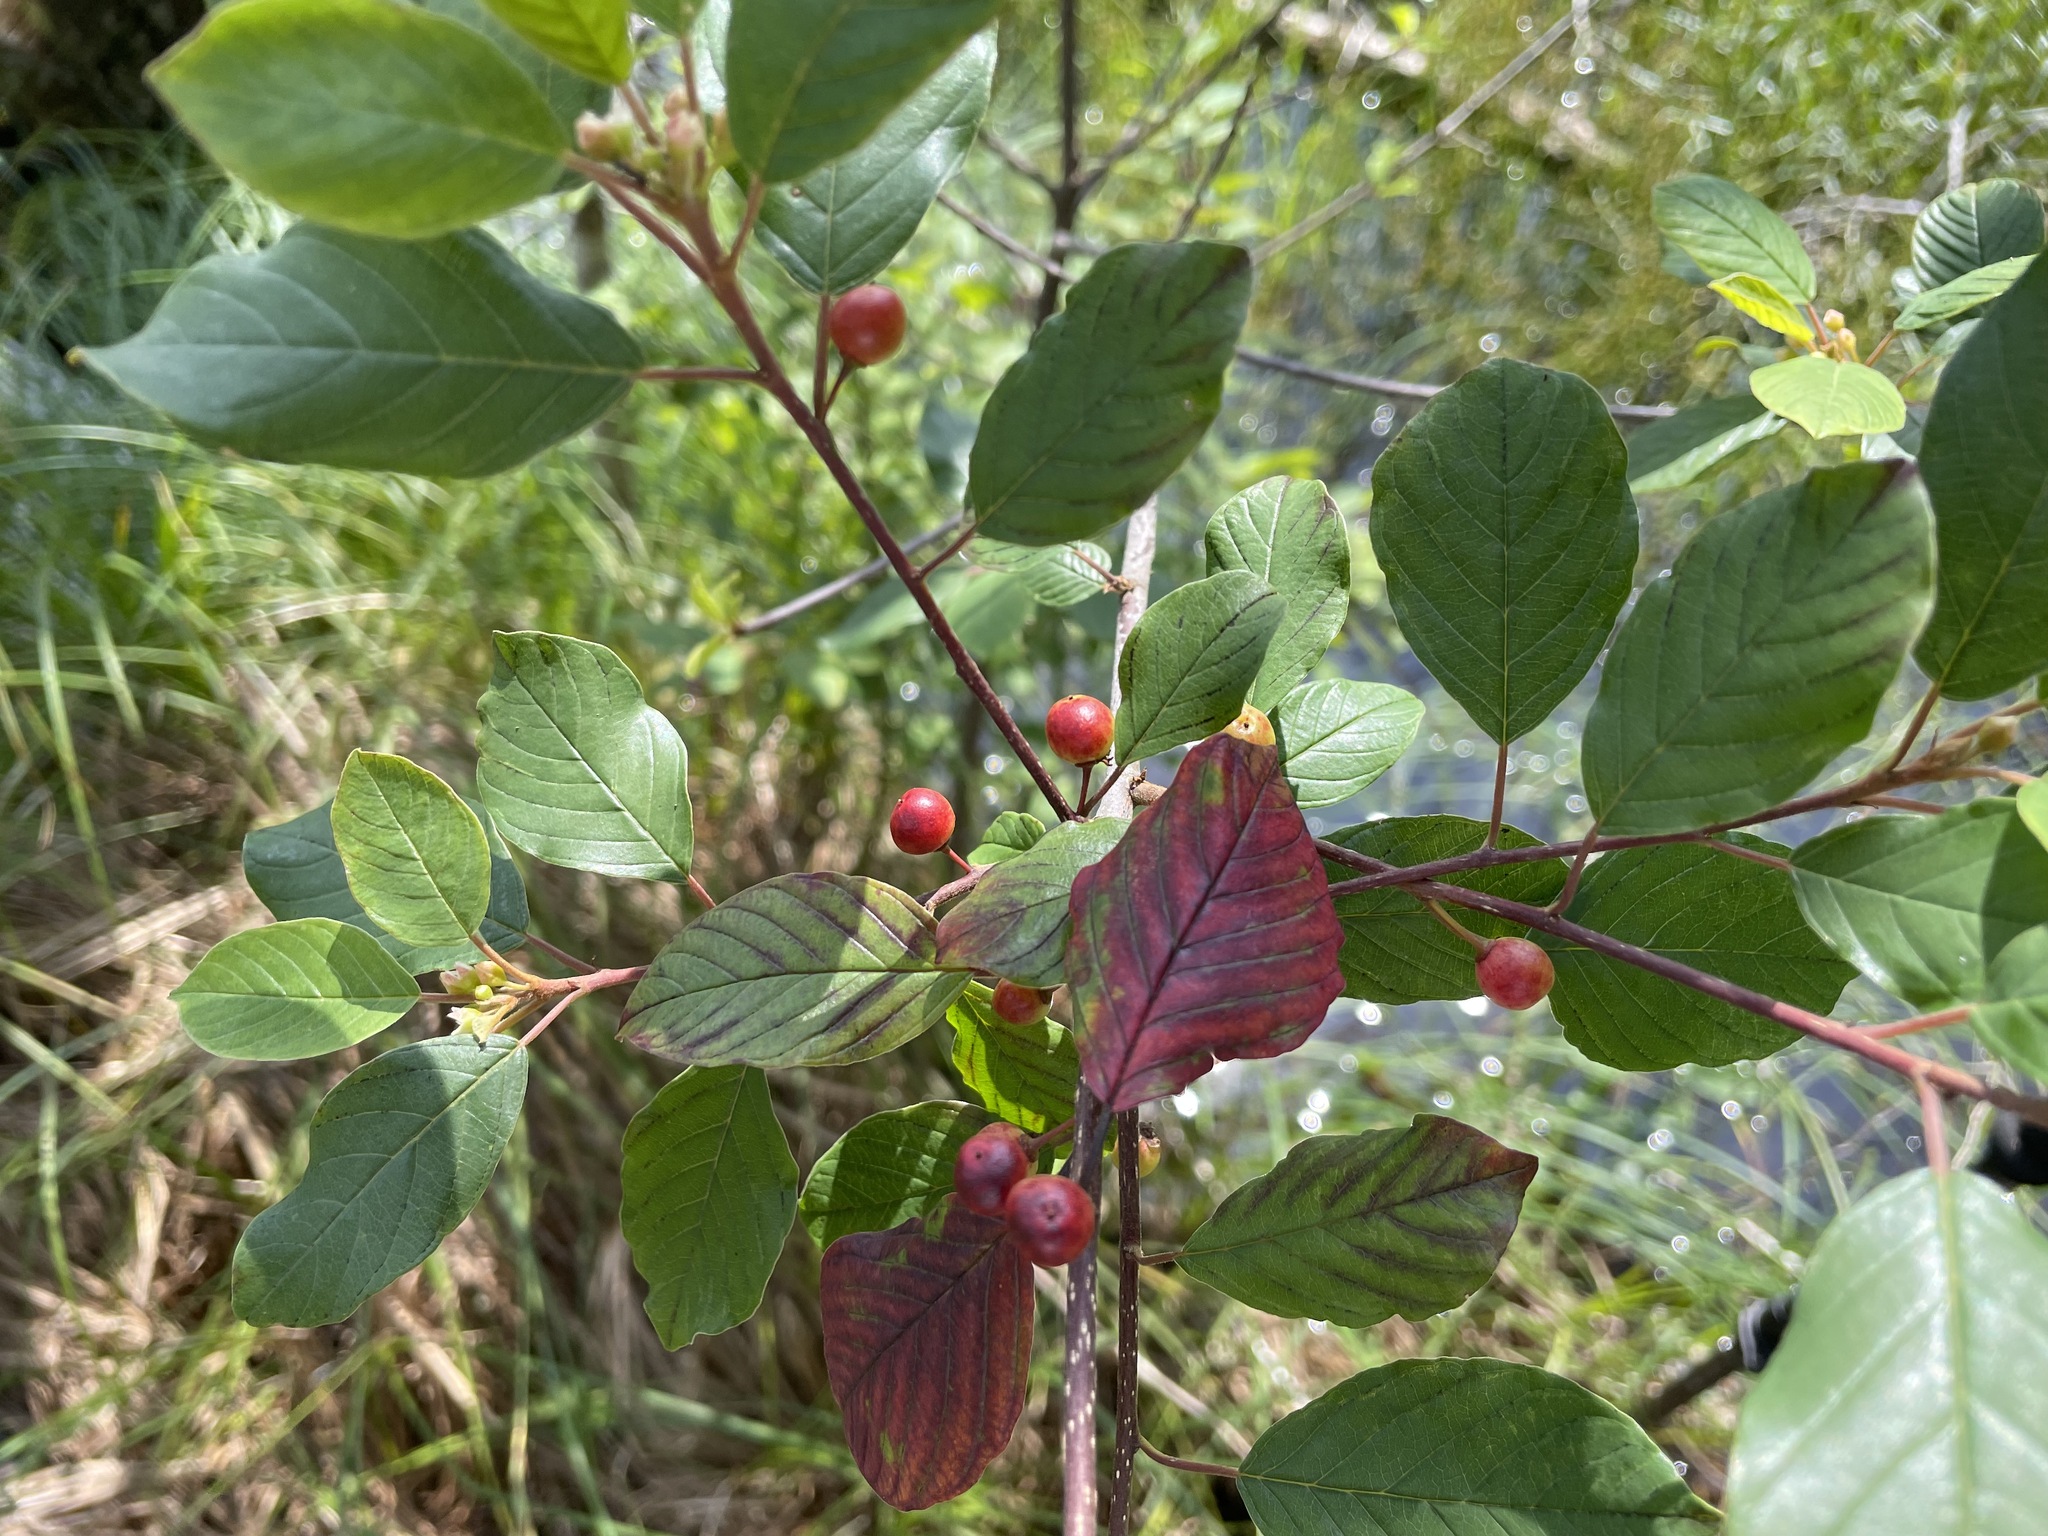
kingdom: Plantae
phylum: Tracheophyta
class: Magnoliopsida
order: Rosales
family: Rhamnaceae
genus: Frangula
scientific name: Frangula alnus
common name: Alder buckthorn
